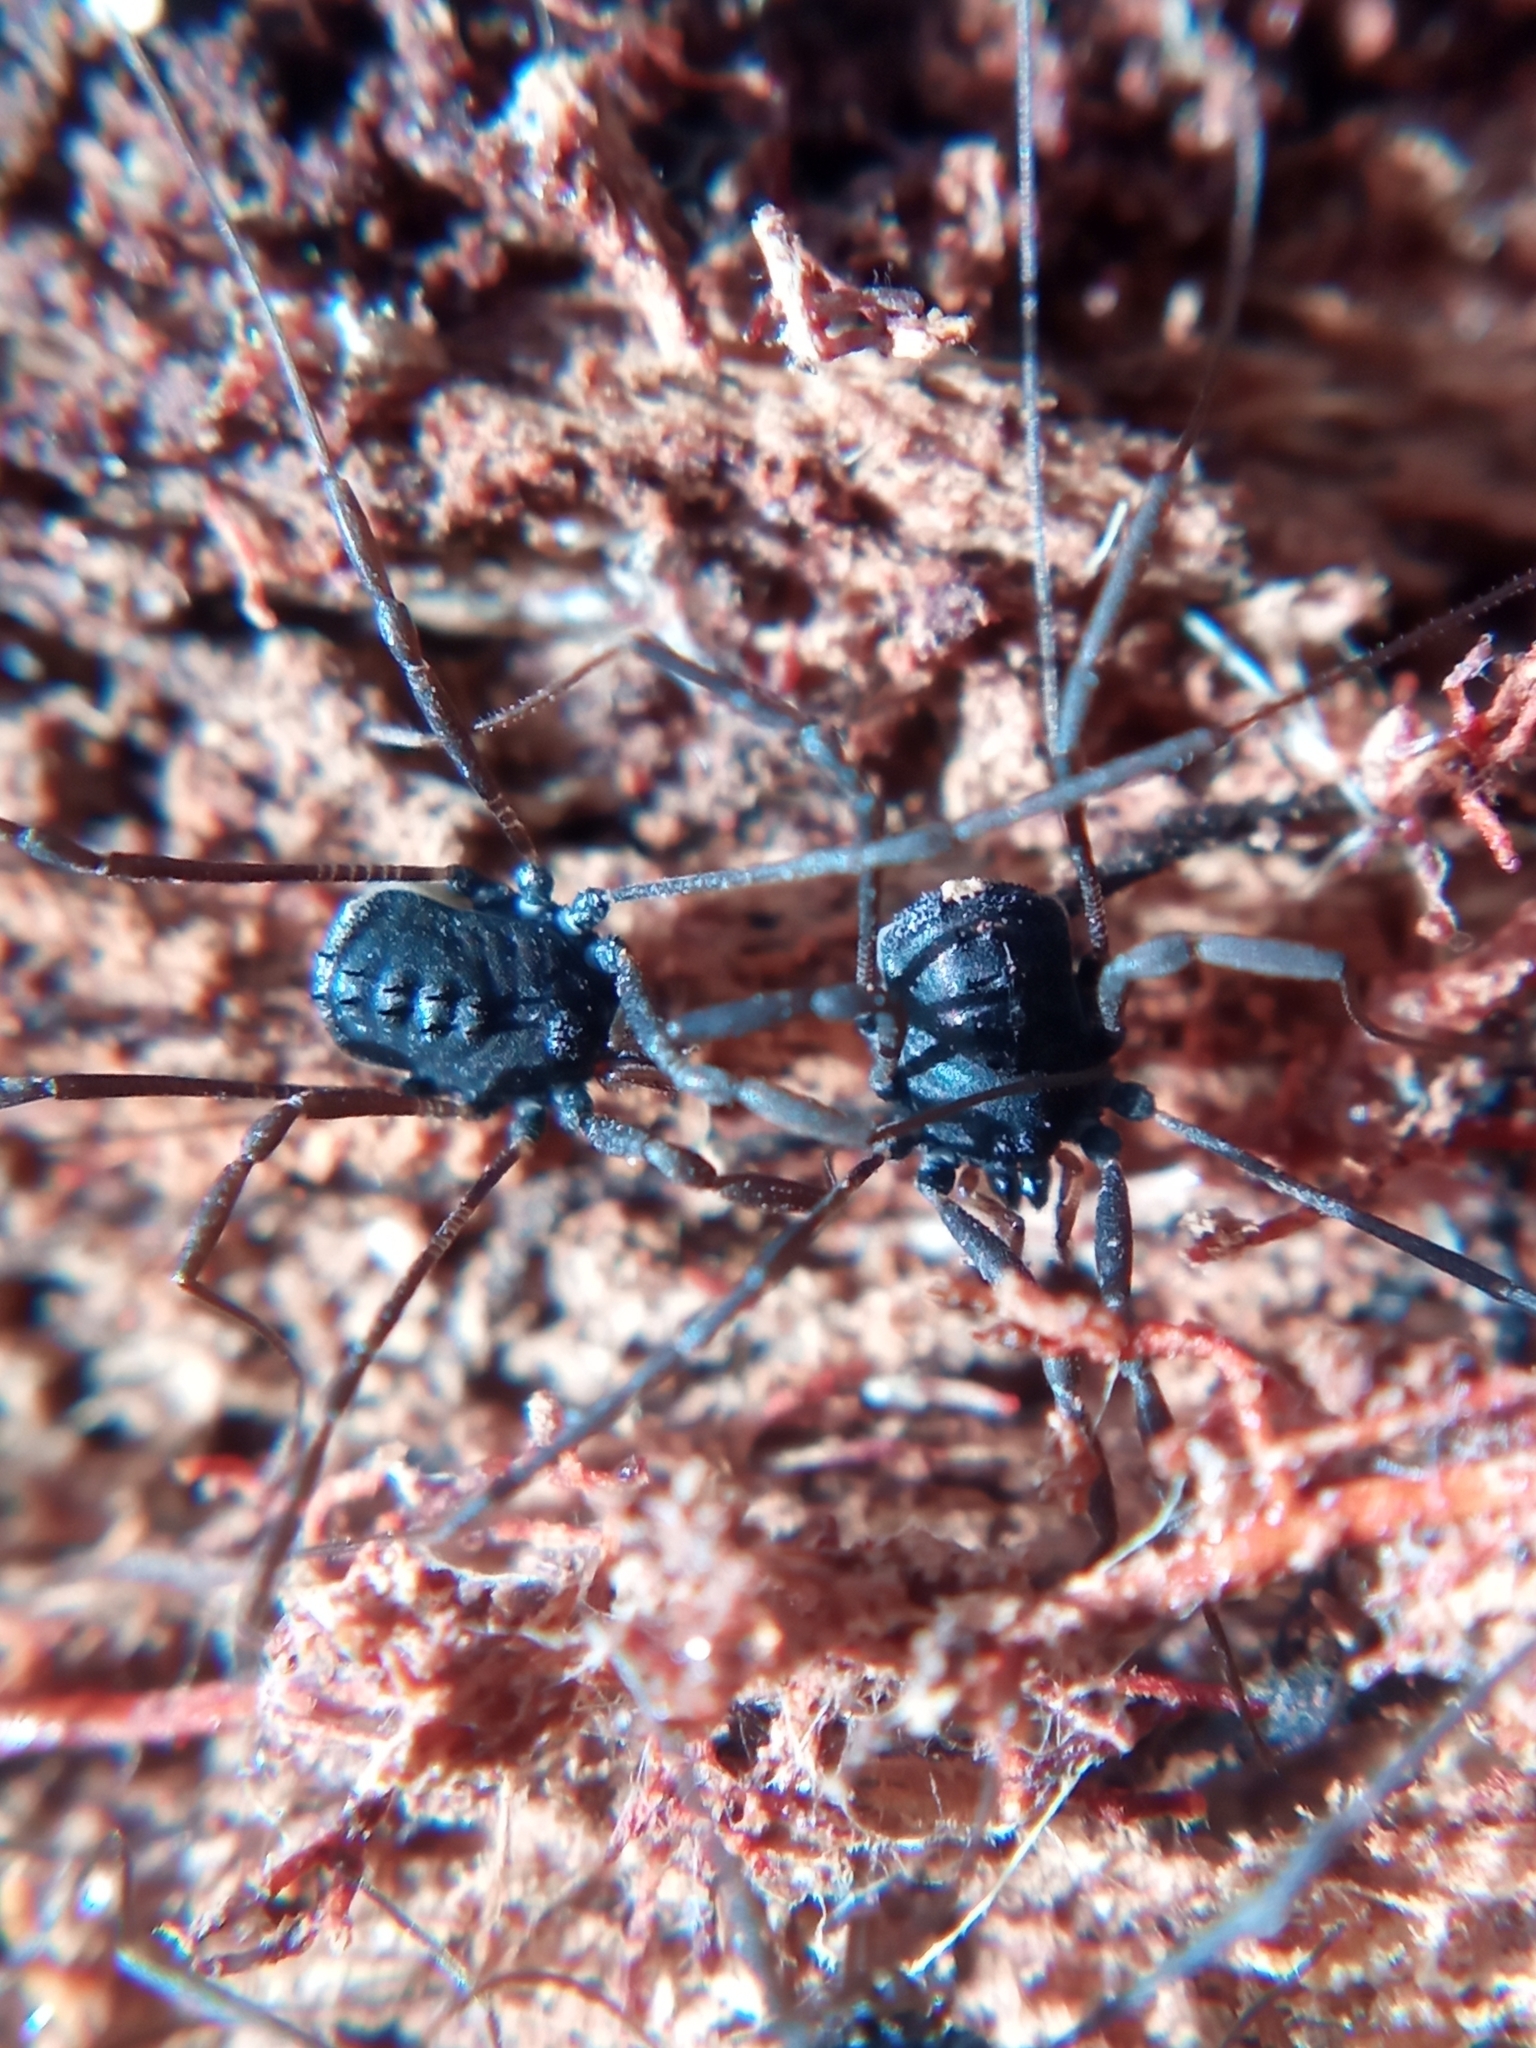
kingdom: Animalia
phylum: Arthropoda
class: Arachnida
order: Opiliones
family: Nemastomatidae
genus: Histricostoma
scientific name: Histricostoma dentipalpe
